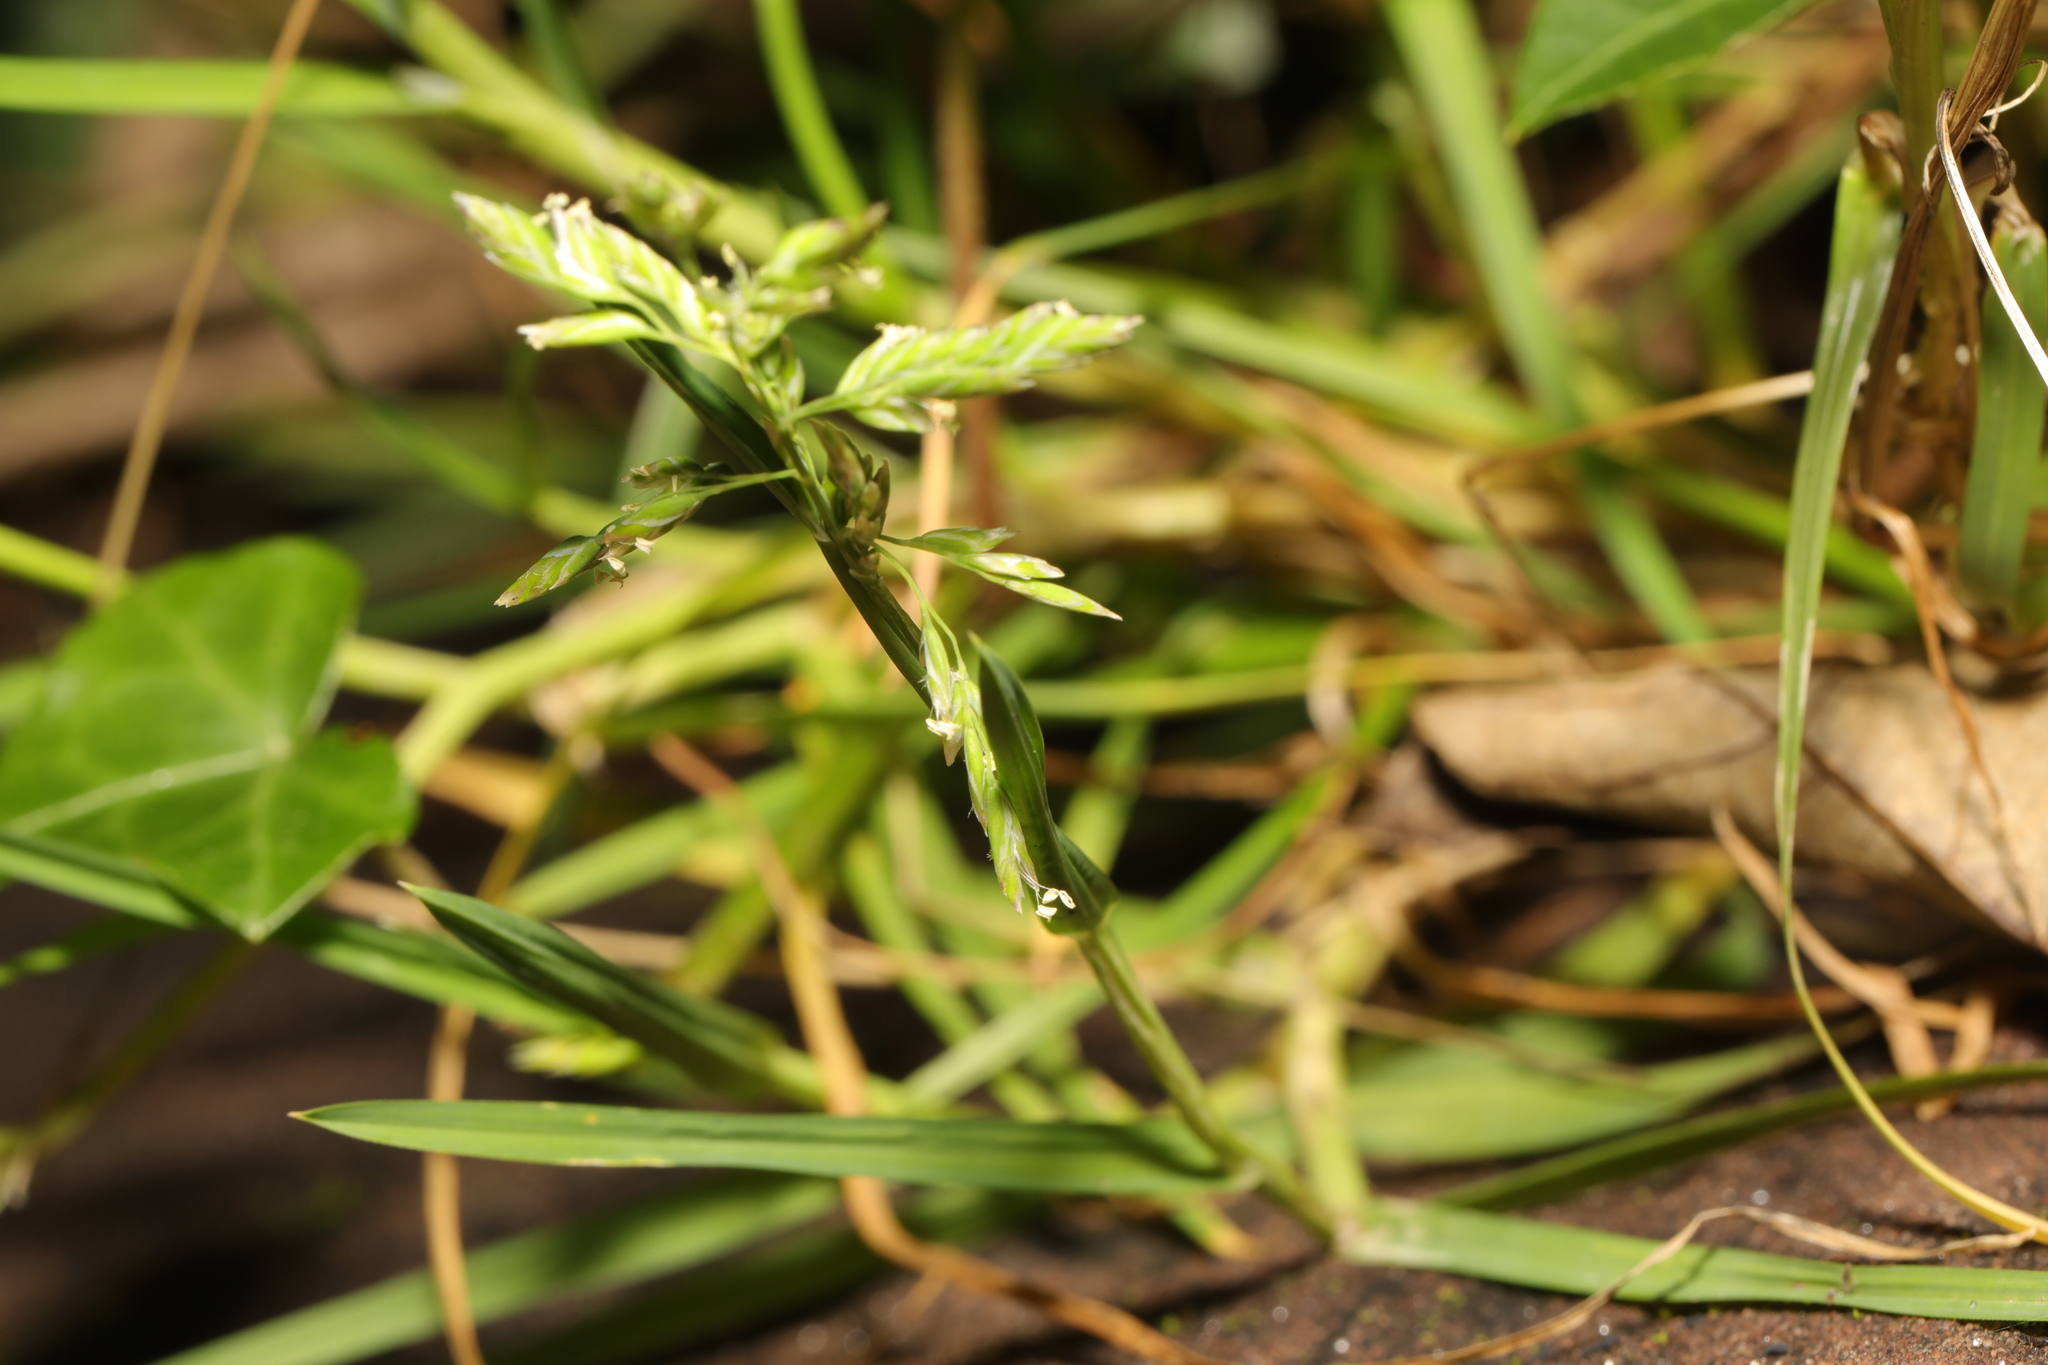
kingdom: Plantae
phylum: Tracheophyta
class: Liliopsida
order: Poales
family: Poaceae
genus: Poa
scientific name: Poa annua
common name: Annual bluegrass
